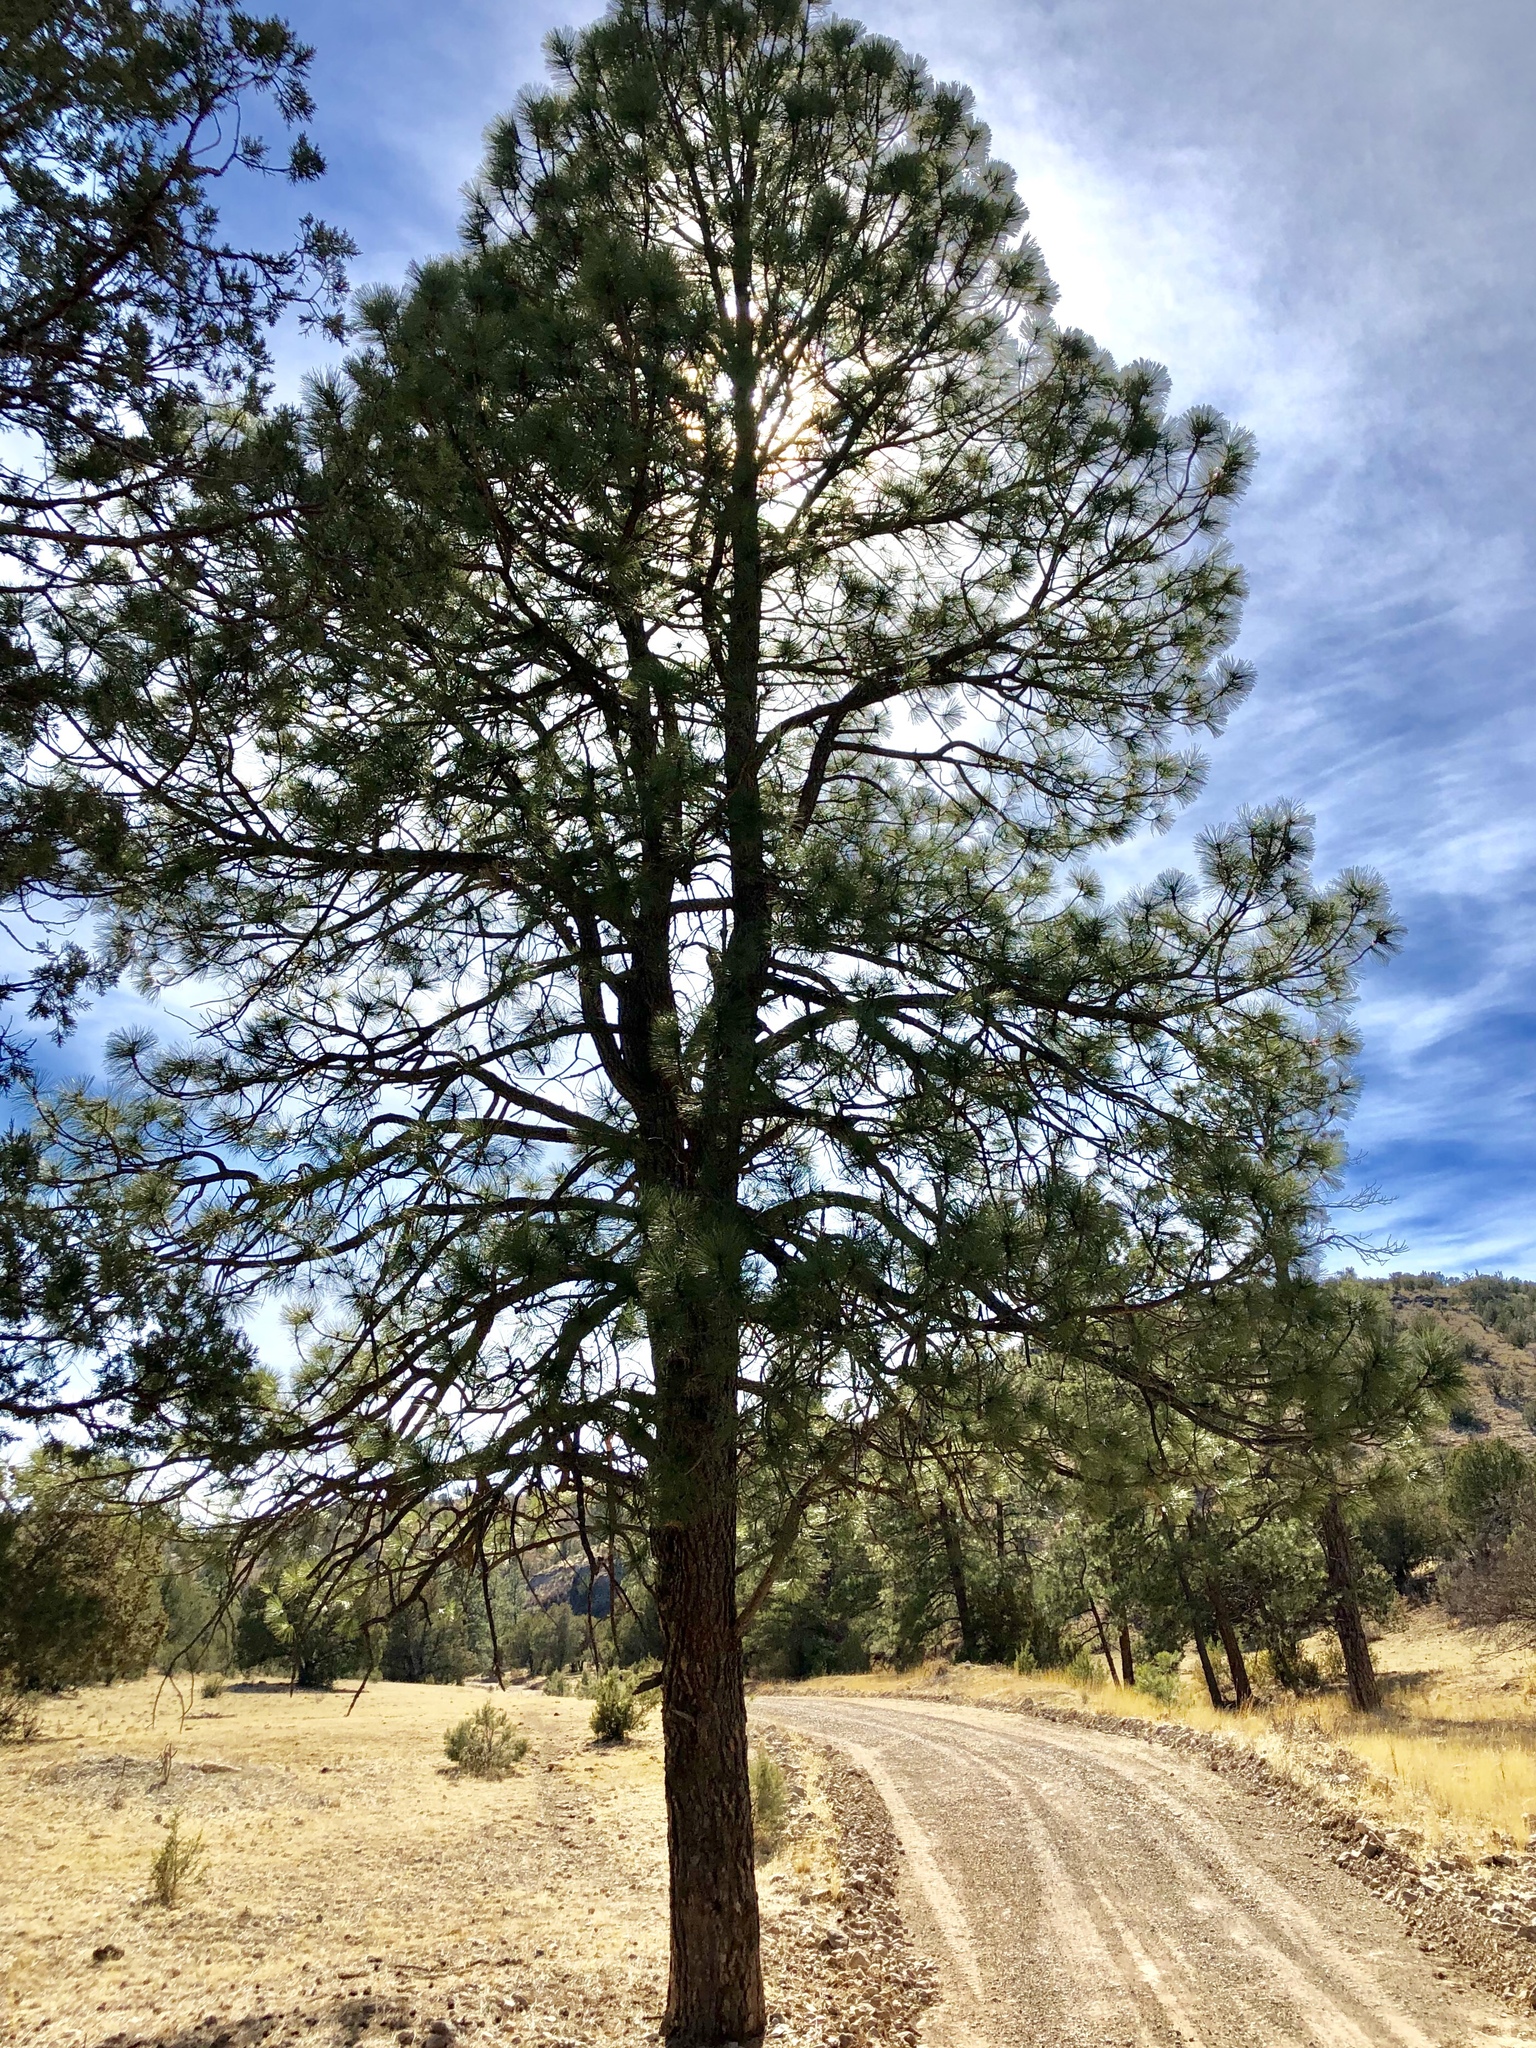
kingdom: Plantae
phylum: Tracheophyta
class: Pinopsida
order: Pinales
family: Pinaceae
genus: Pinus
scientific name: Pinus ponderosa
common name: Western yellow-pine
